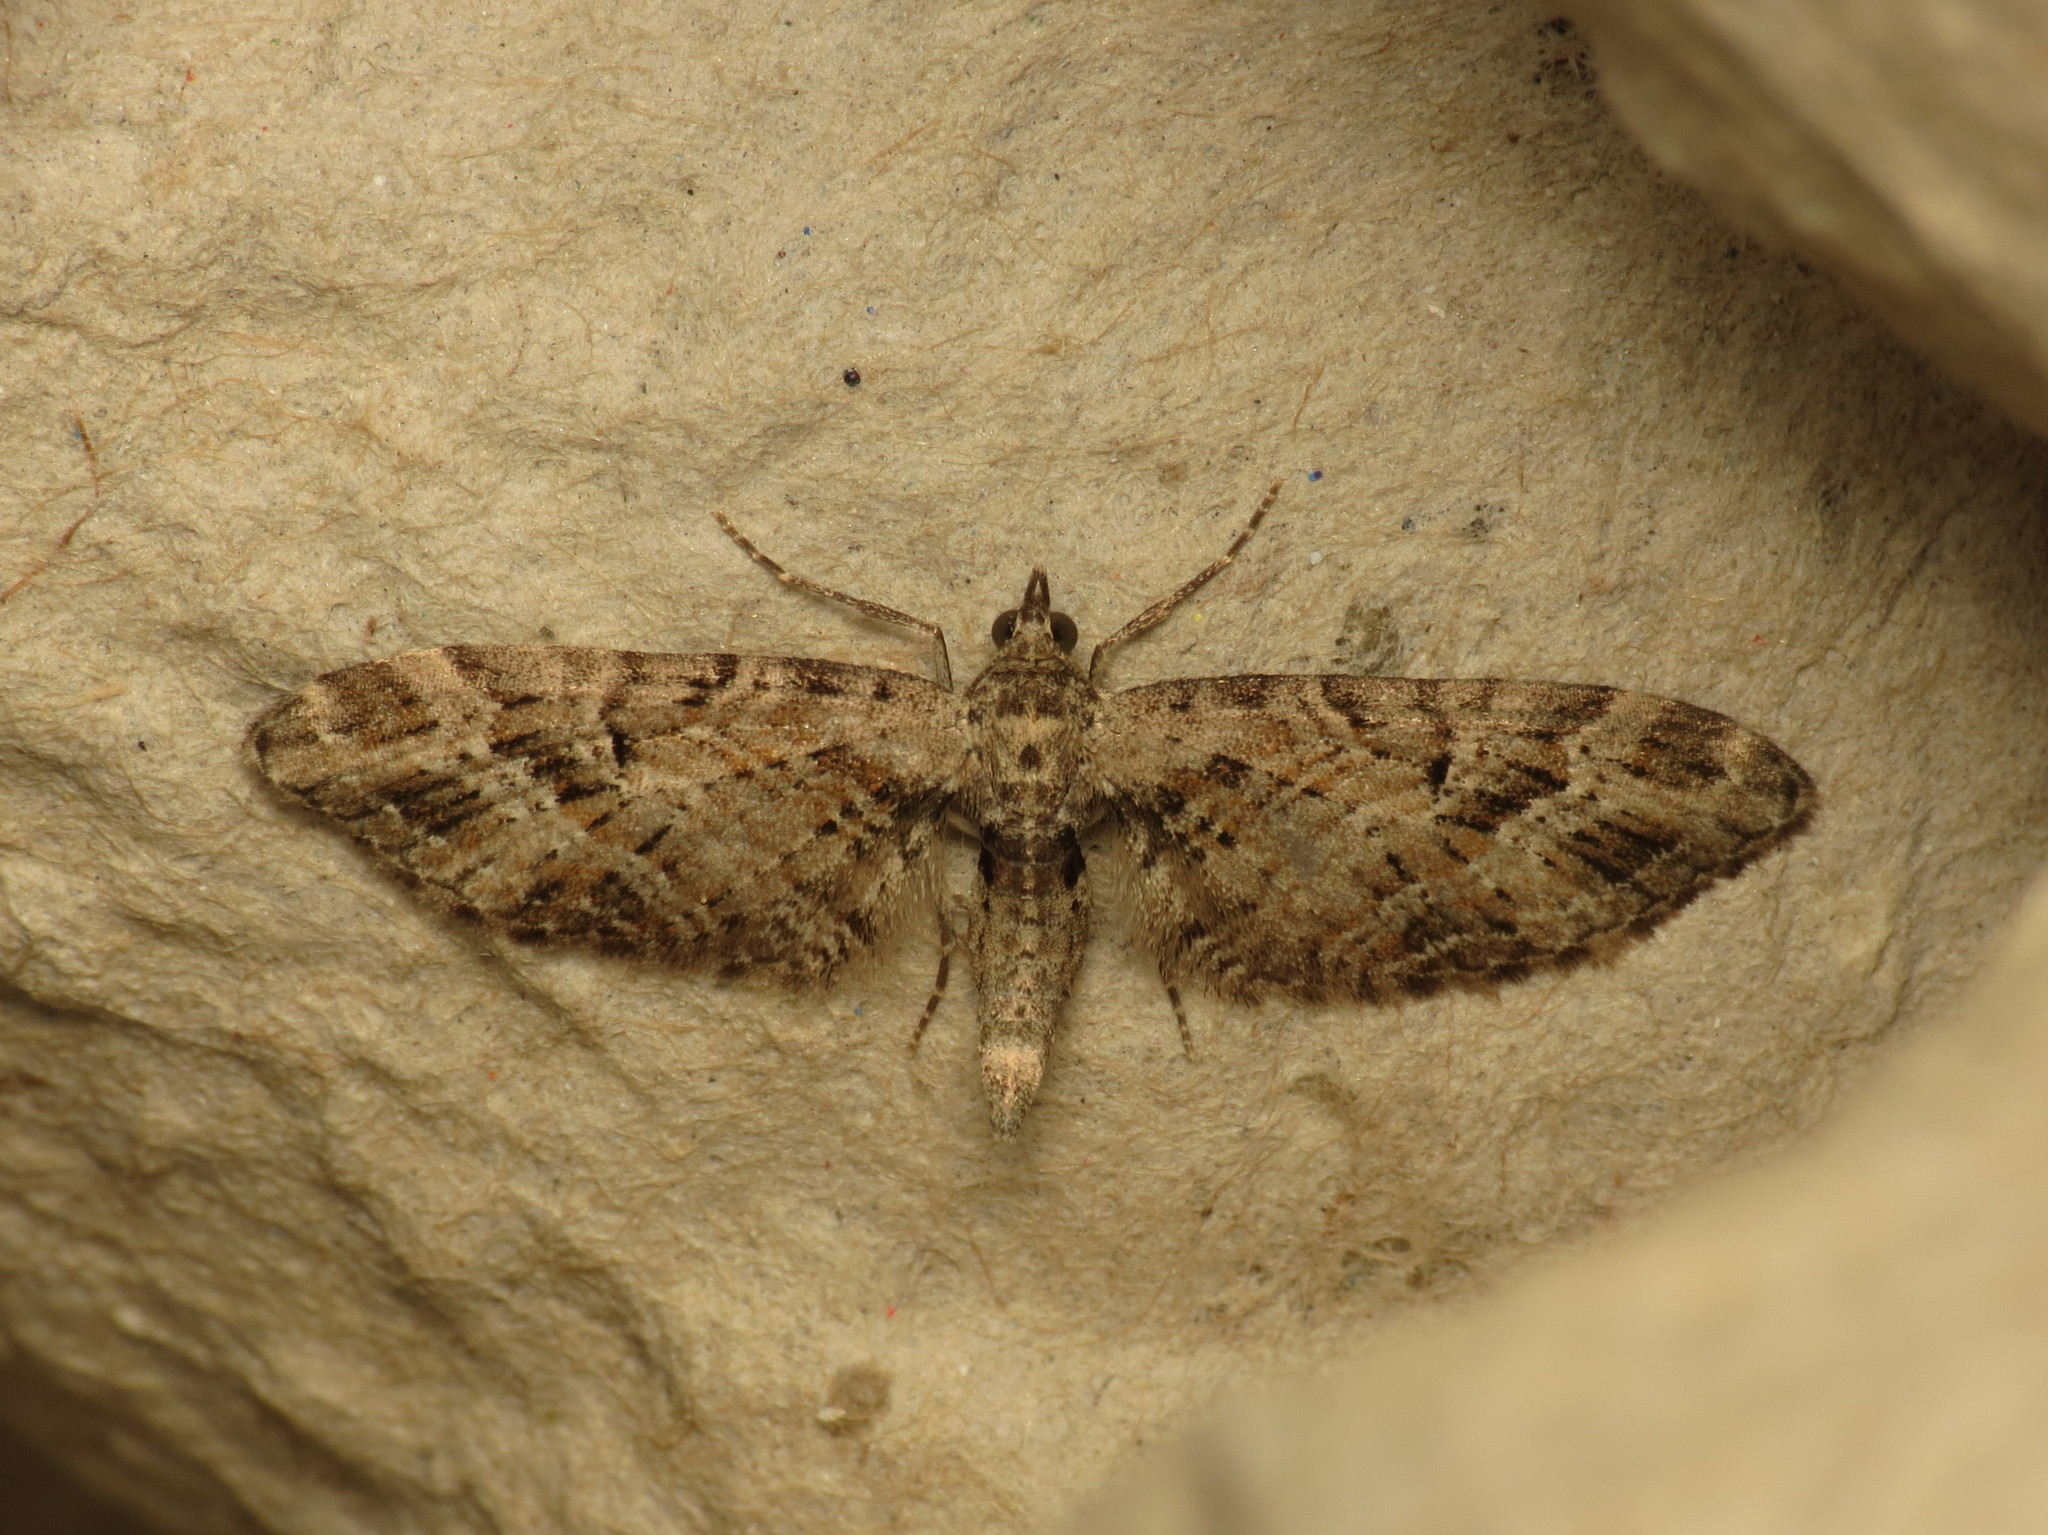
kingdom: Animalia
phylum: Arthropoda
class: Insecta
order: Lepidoptera
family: Geometridae
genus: Eupithecia
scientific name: Eupithecia exiguata
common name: Mottled pug
